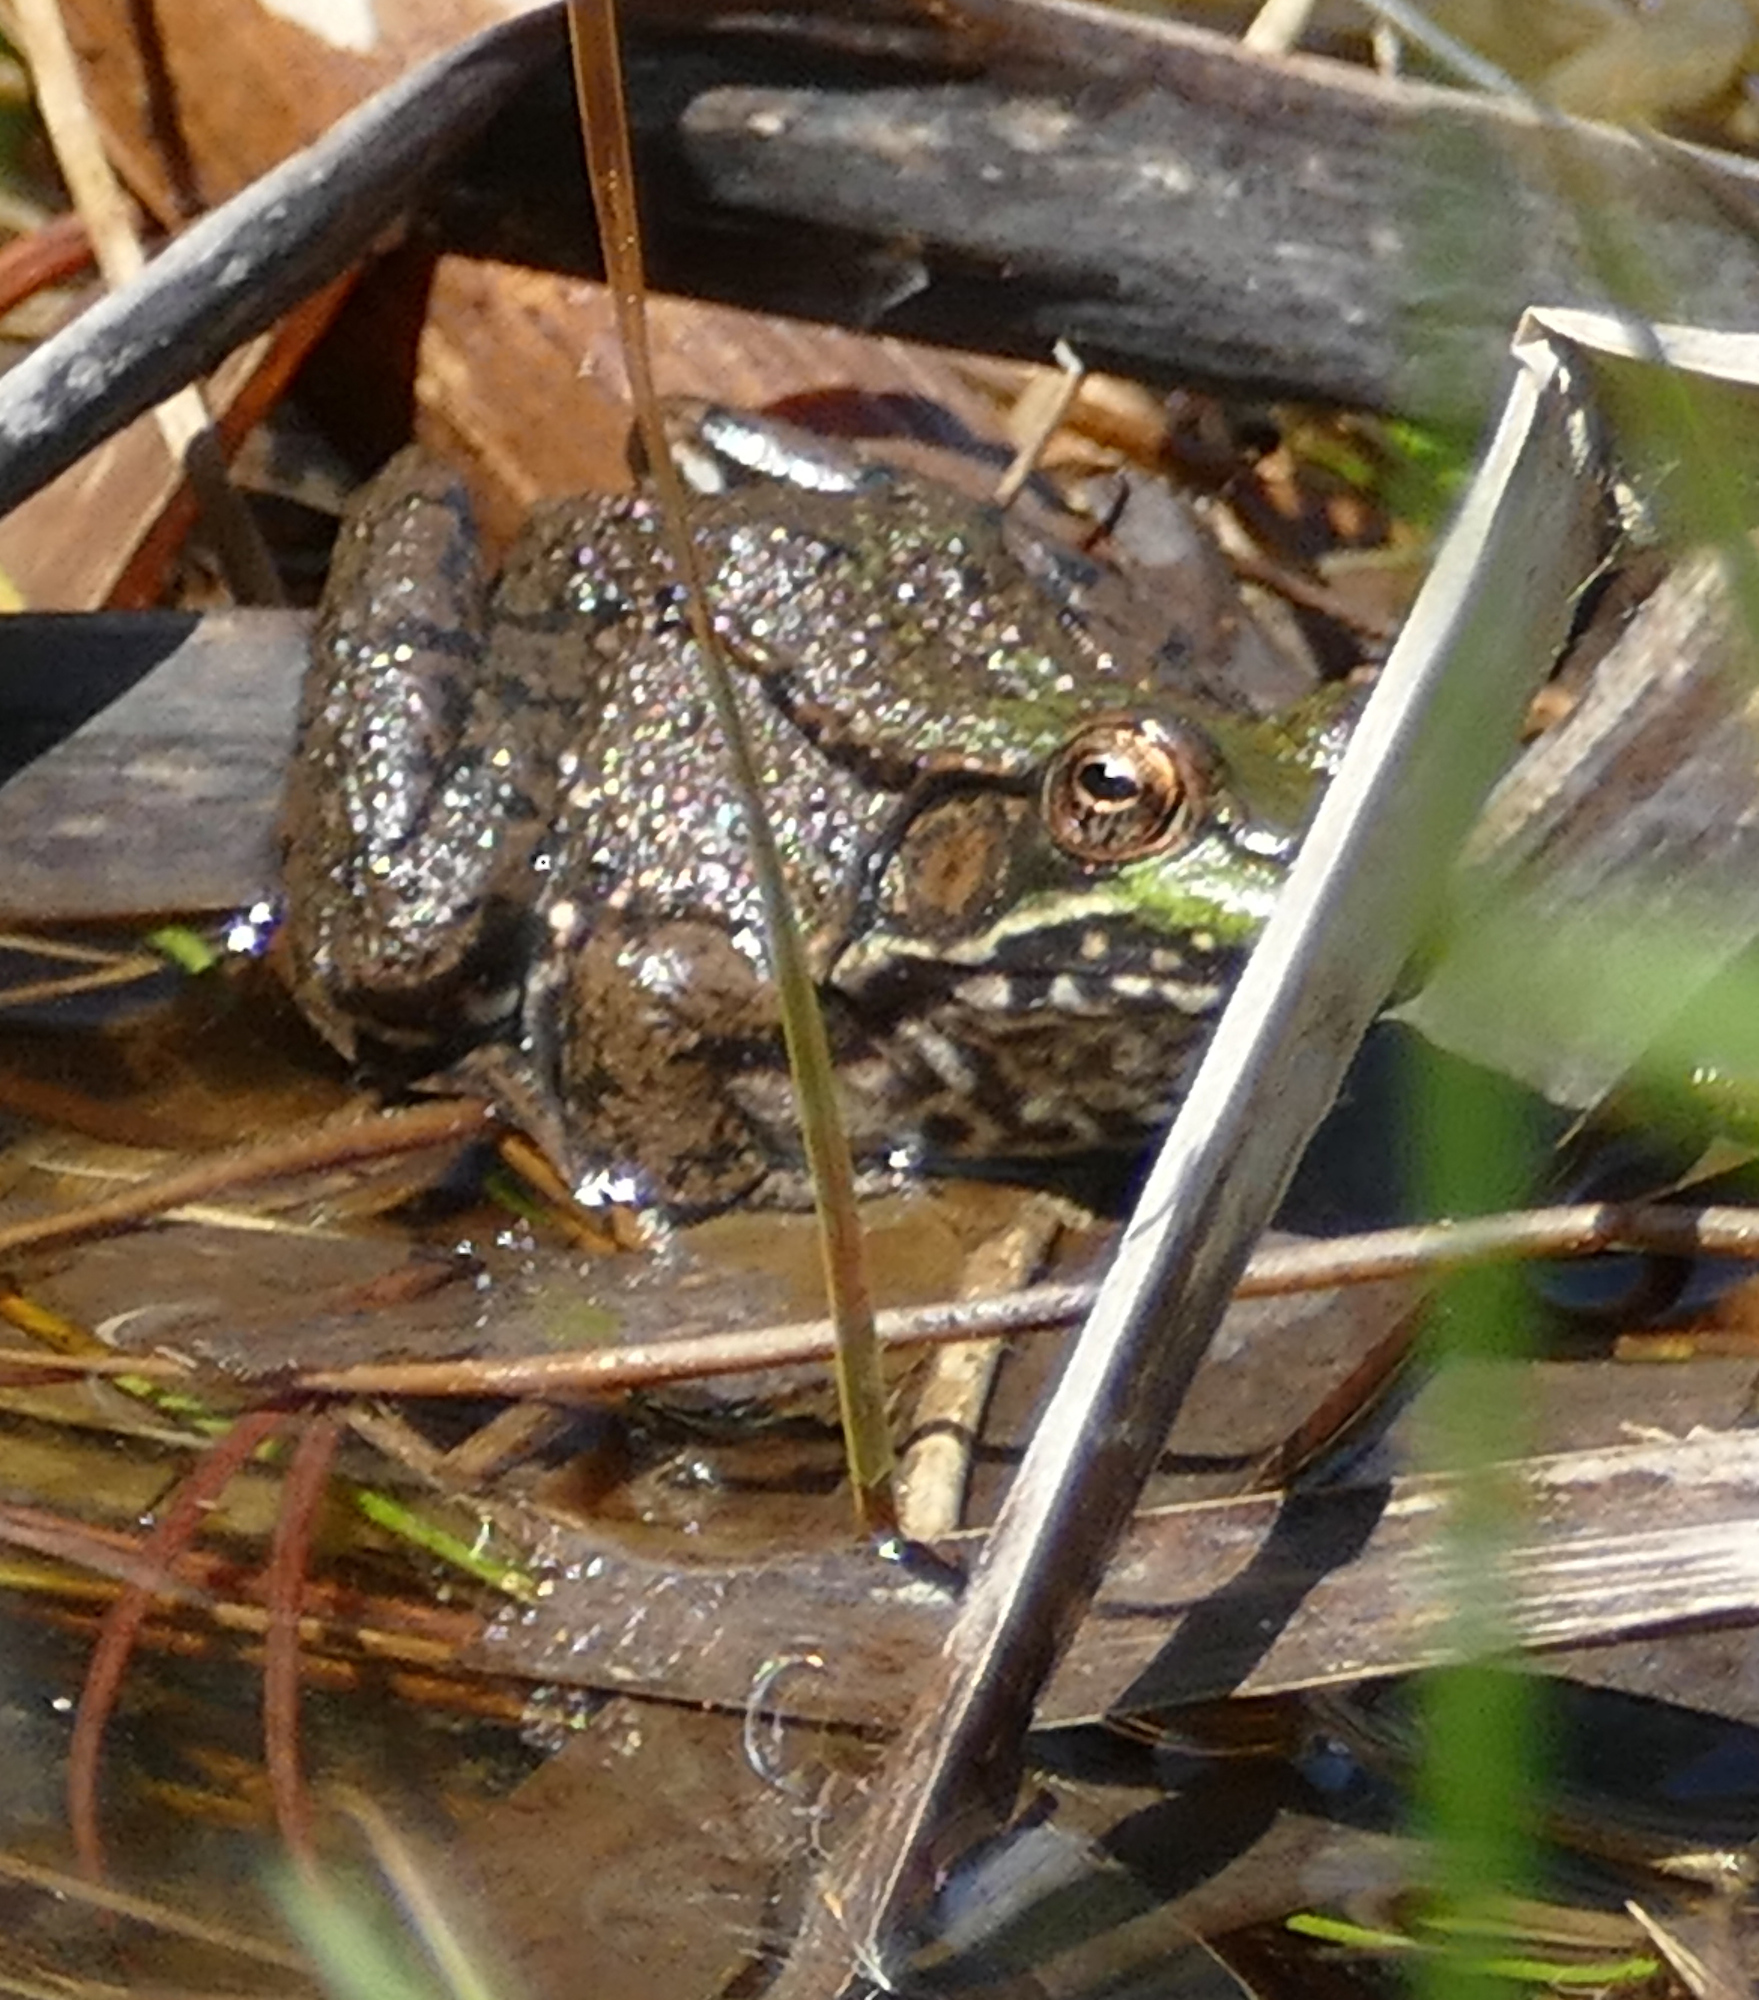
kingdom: Animalia
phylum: Chordata
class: Amphibia
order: Anura
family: Ranidae
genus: Lithobates
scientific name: Lithobates clamitans
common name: Green frog
